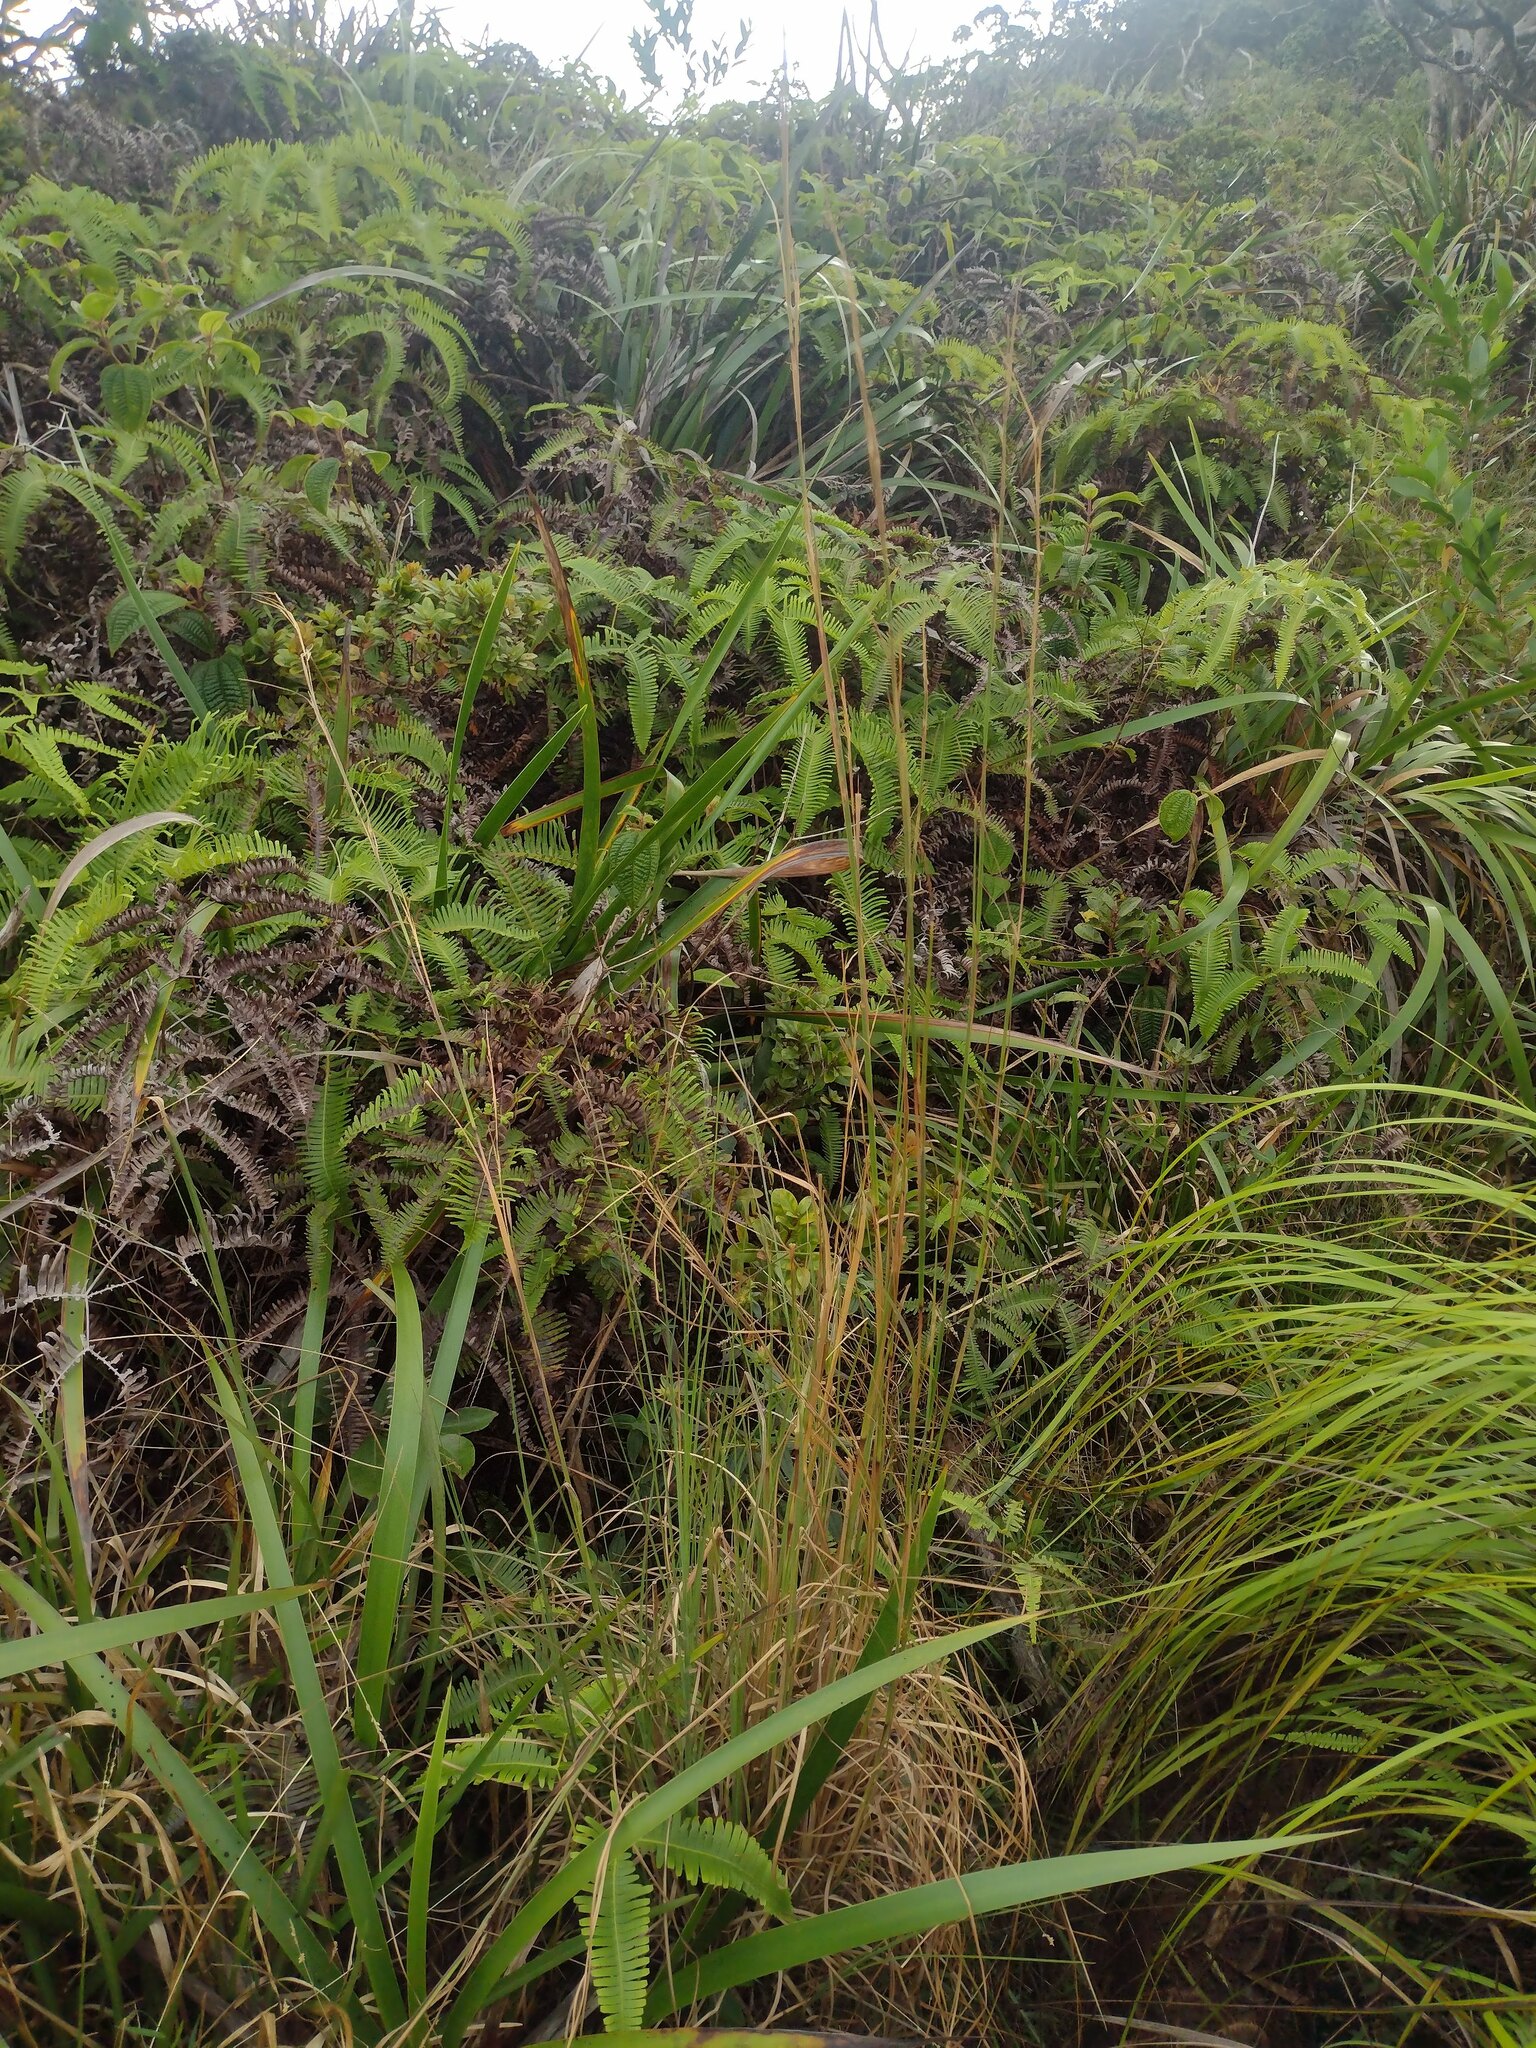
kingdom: Plantae
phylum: Tracheophyta
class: Liliopsida
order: Poales
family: Poaceae
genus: Andropogon
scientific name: Andropogon virginicus
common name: Broomsedge bluestem
